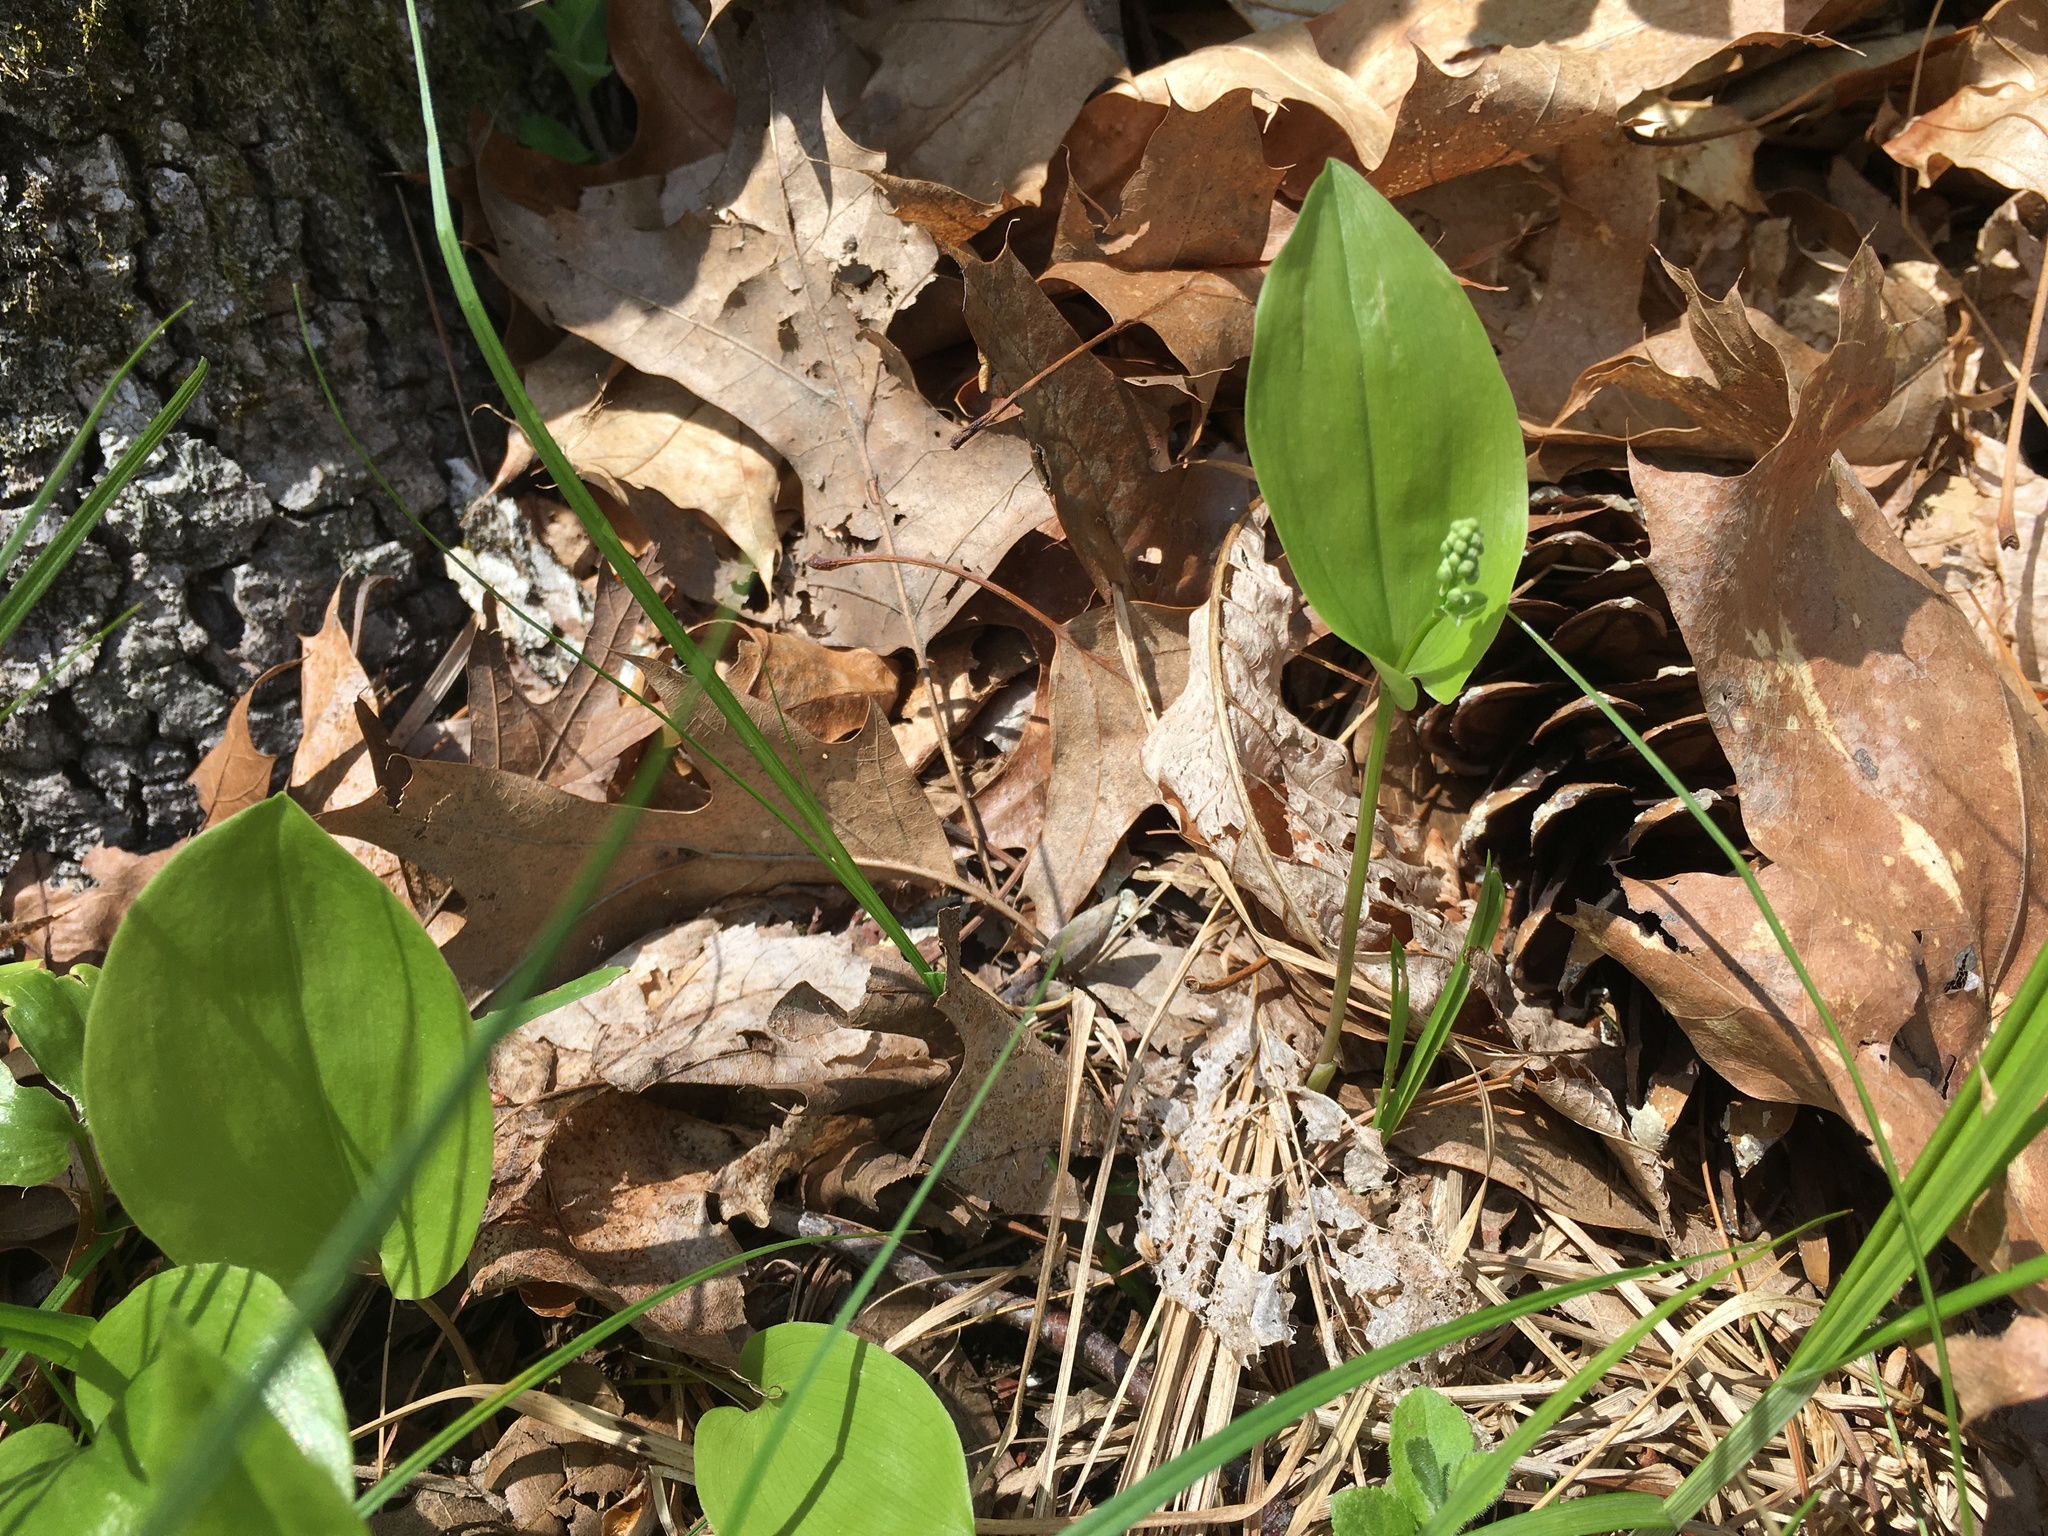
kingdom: Plantae
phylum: Tracheophyta
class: Liliopsida
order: Asparagales
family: Asparagaceae
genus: Maianthemum
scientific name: Maianthemum canadense
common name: False lily-of-the-valley
